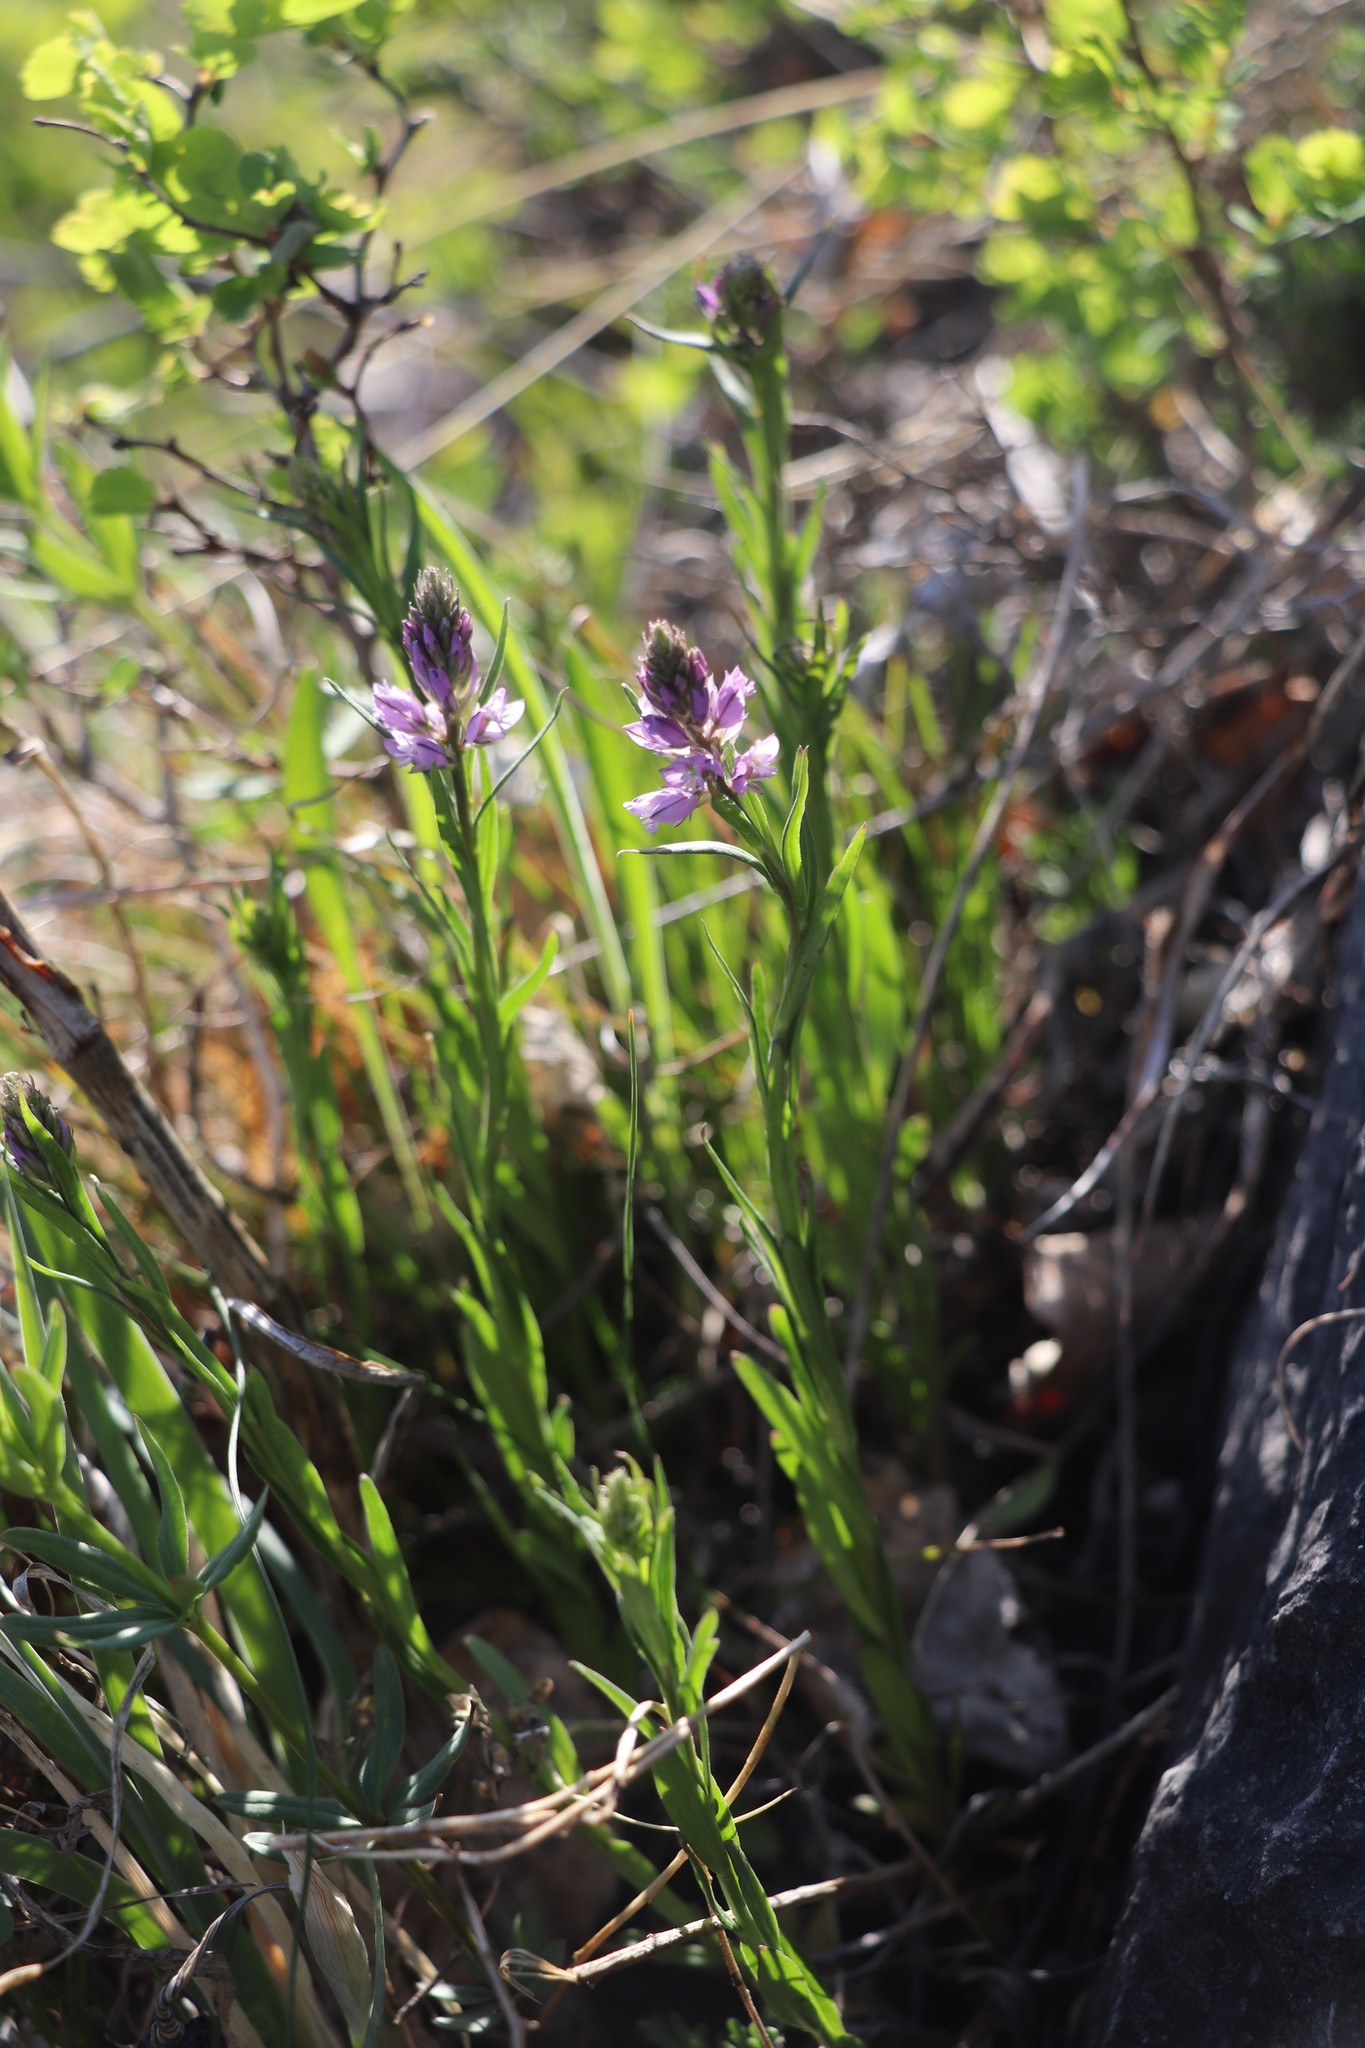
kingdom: Plantae
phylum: Tracheophyta
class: Magnoliopsida
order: Fabales
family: Polygalaceae
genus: Polygala
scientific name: Polygala comosa
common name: Tufted milkwort
